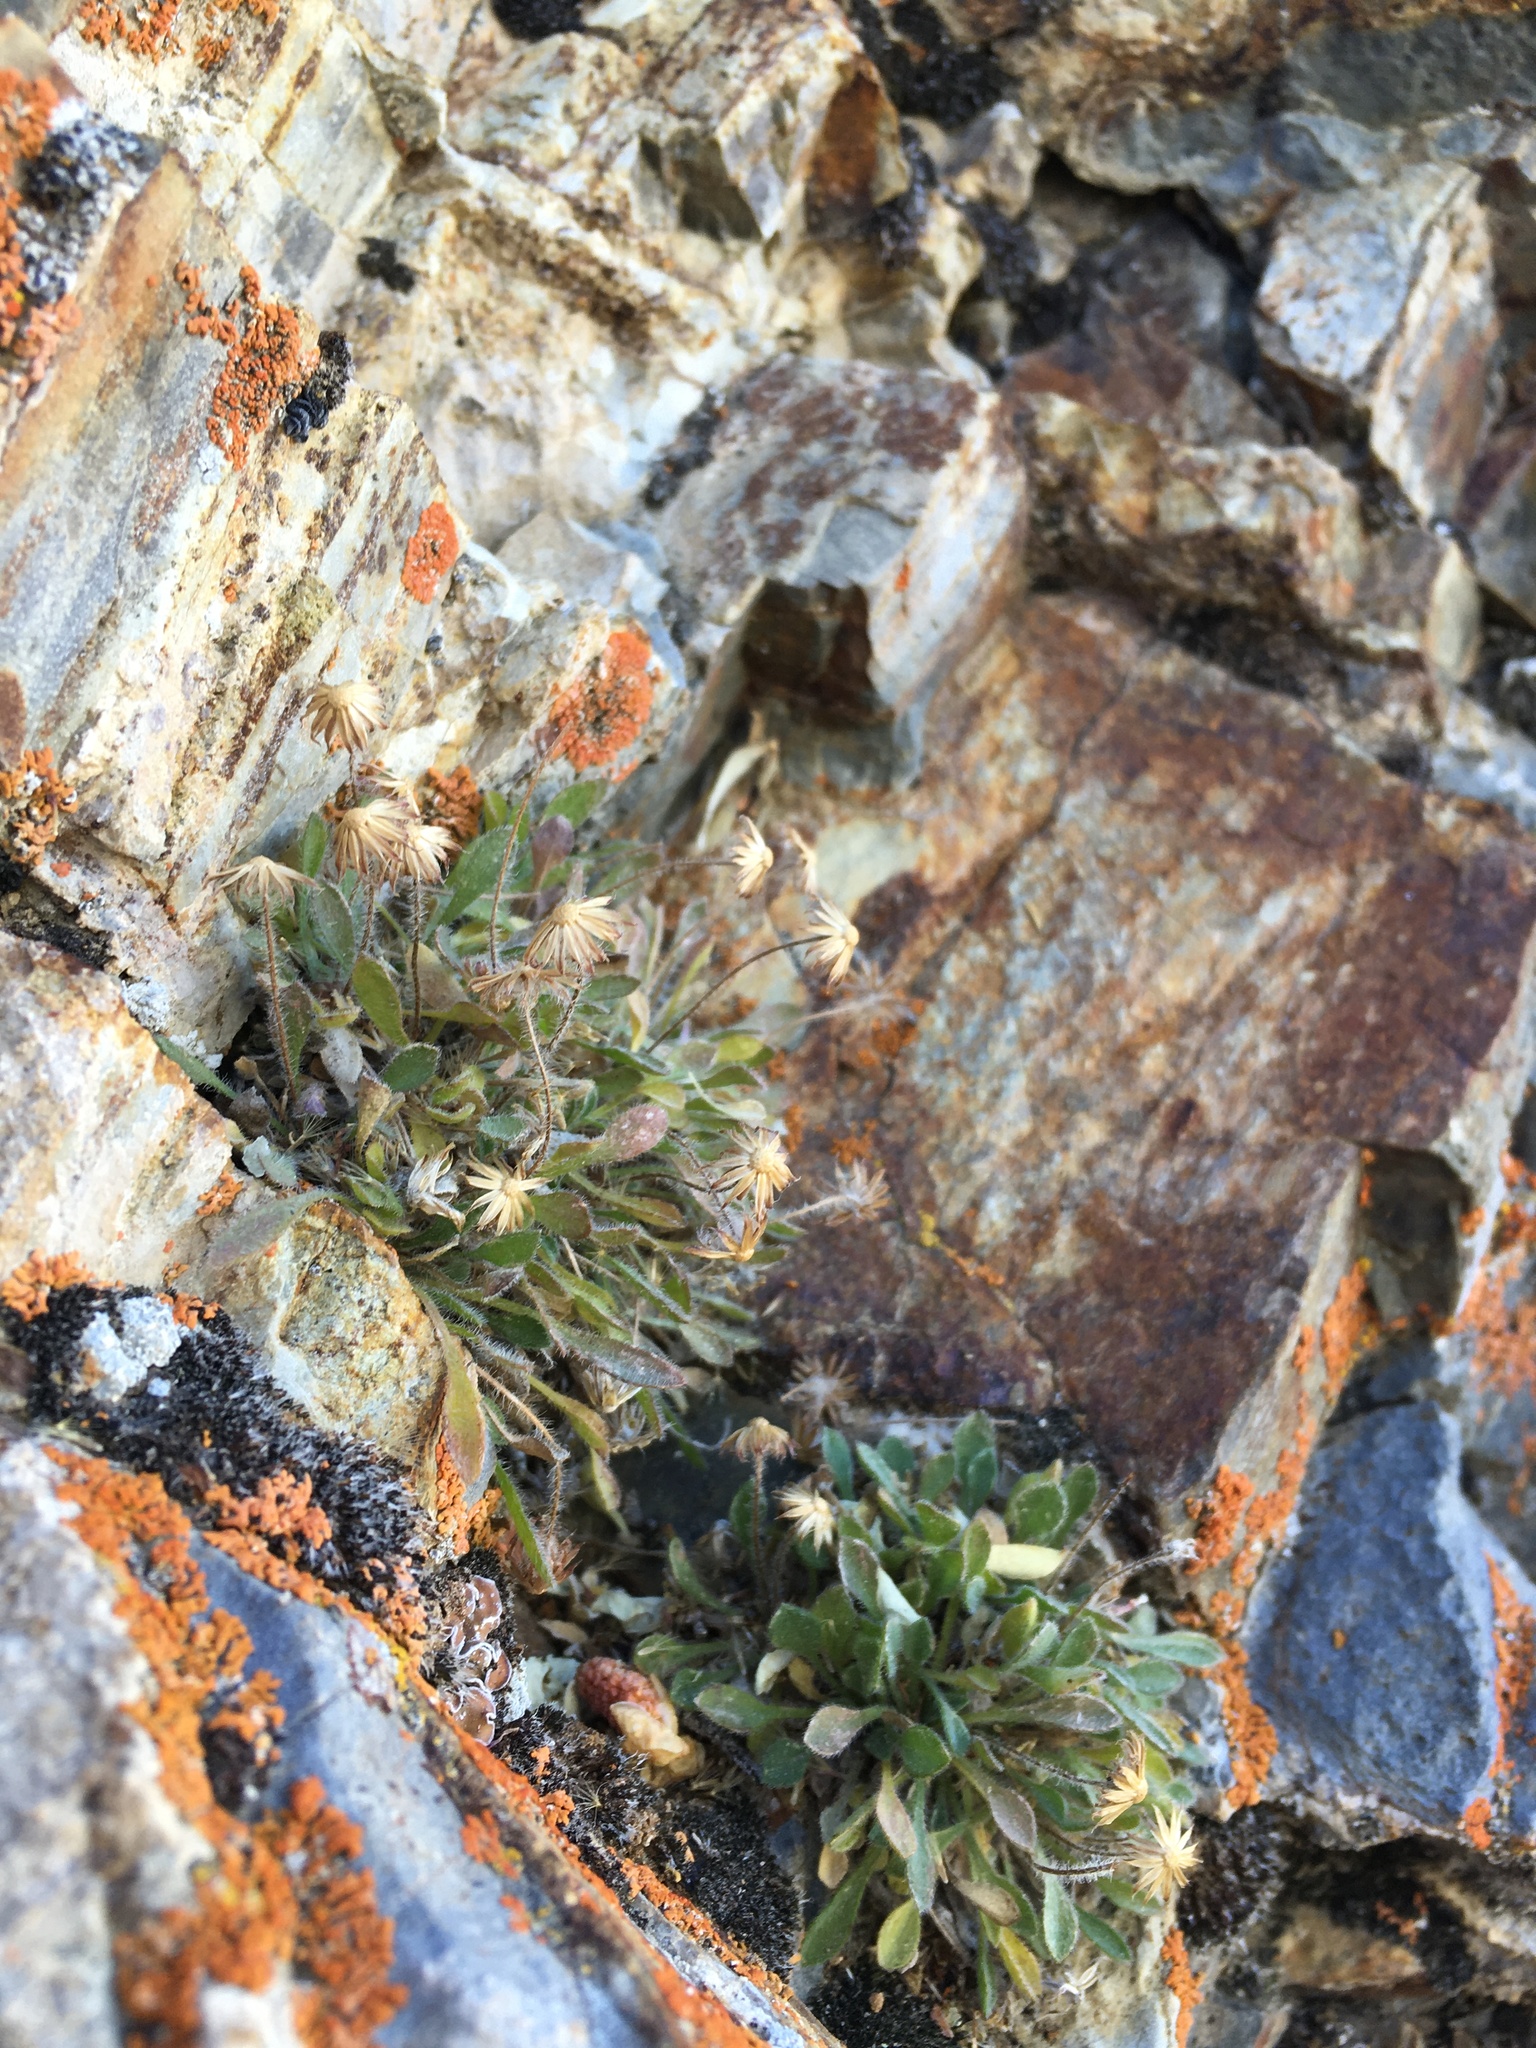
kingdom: Plantae
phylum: Tracheophyta
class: Magnoliopsida
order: Asterales
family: Asteraceae
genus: Erigeron
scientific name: Erigeron uncialis
